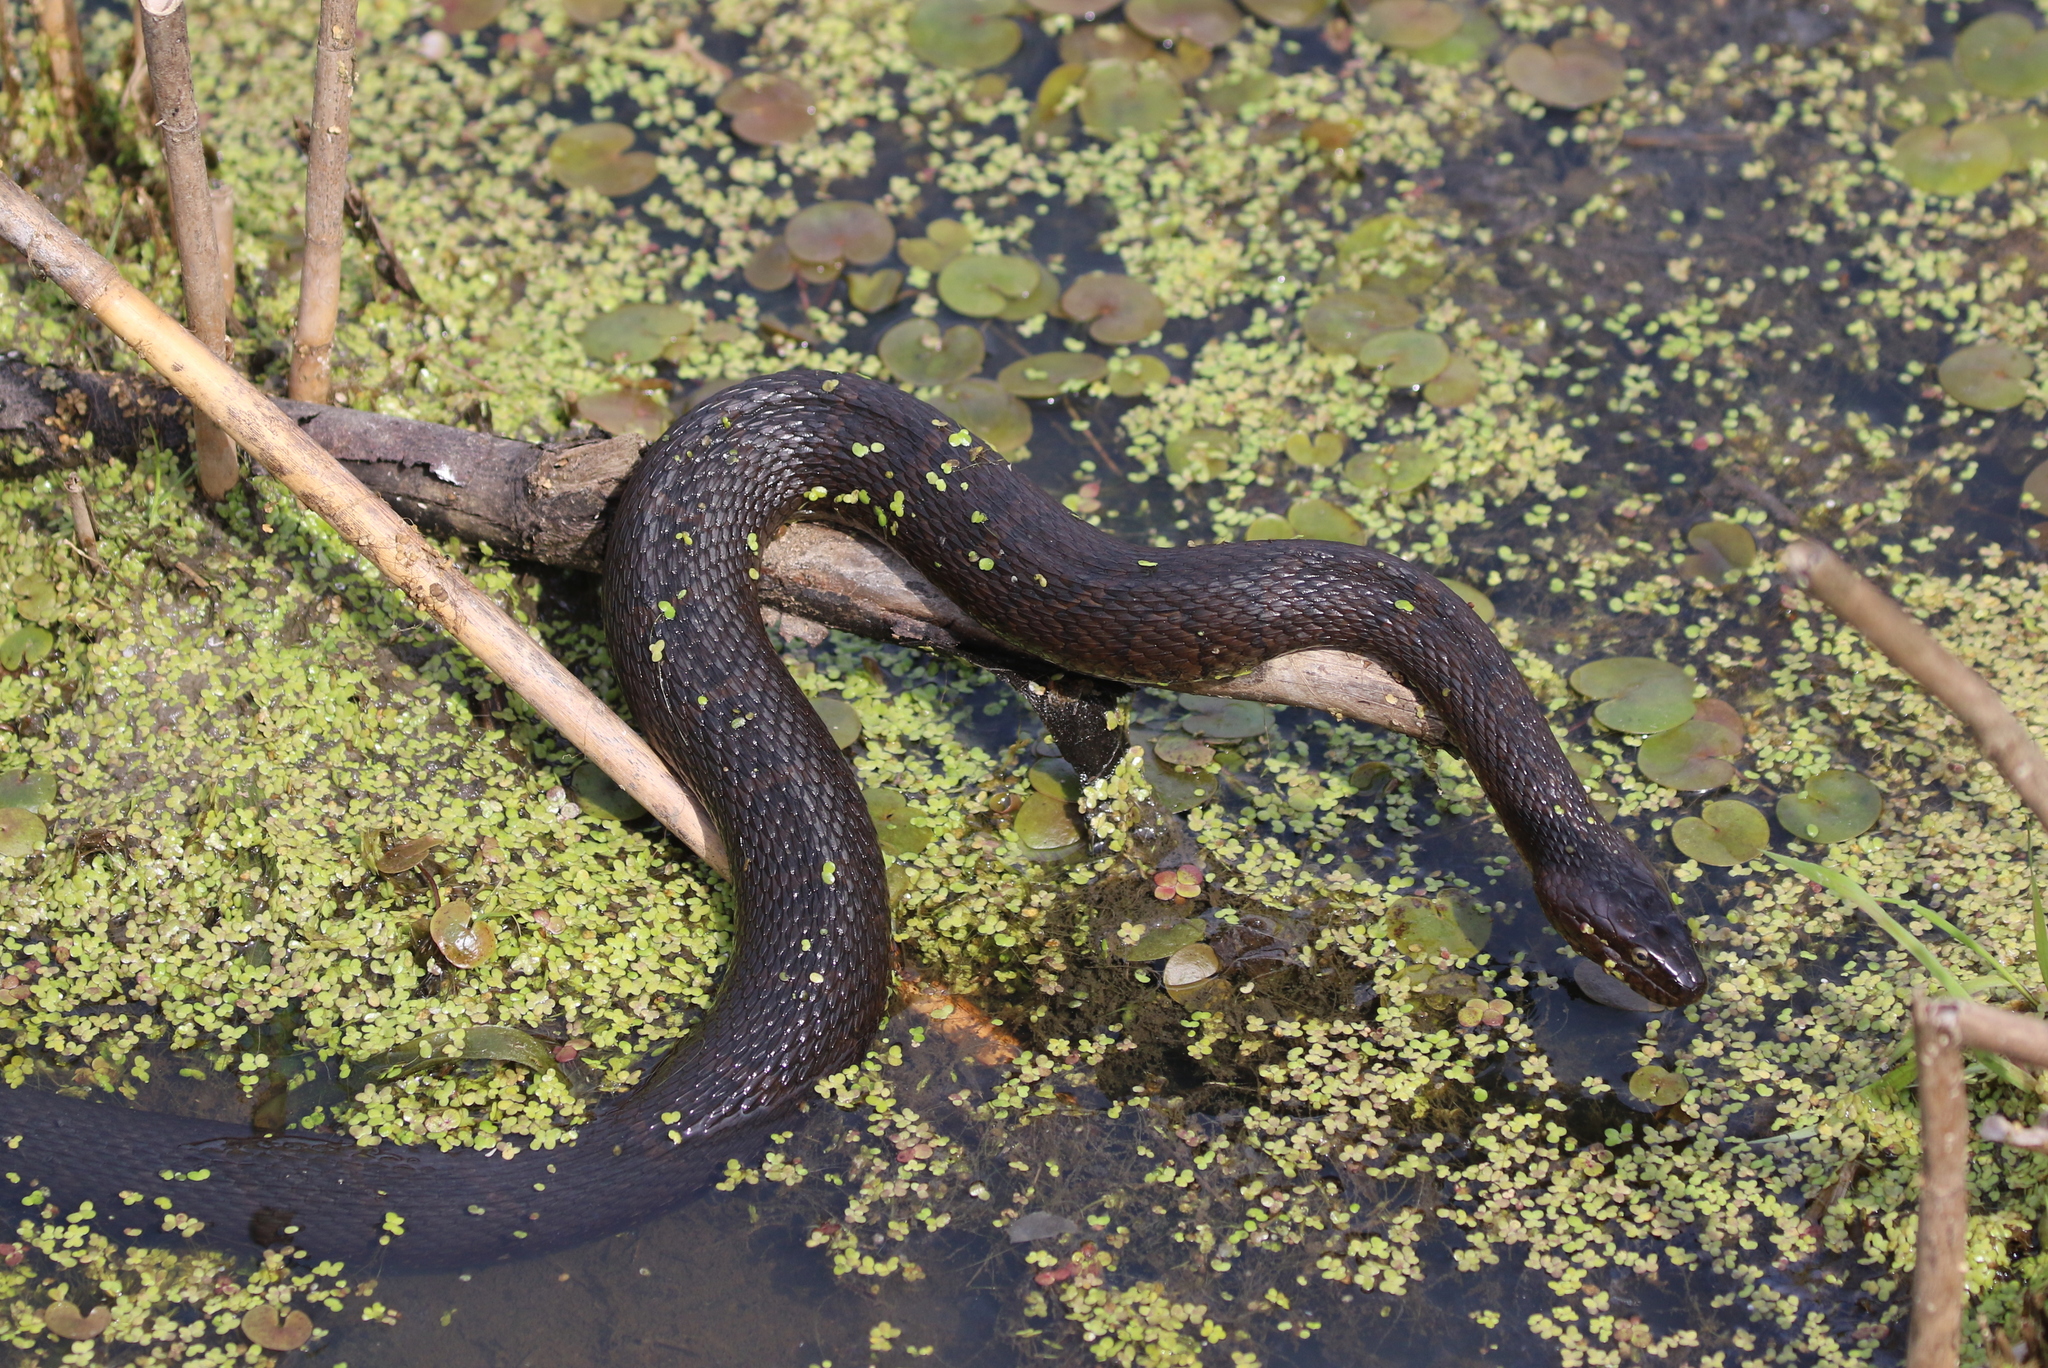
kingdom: Animalia
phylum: Chordata
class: Squamata
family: Colubridae
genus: Nerodia
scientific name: Nerodia sipedon
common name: Northern water snake
